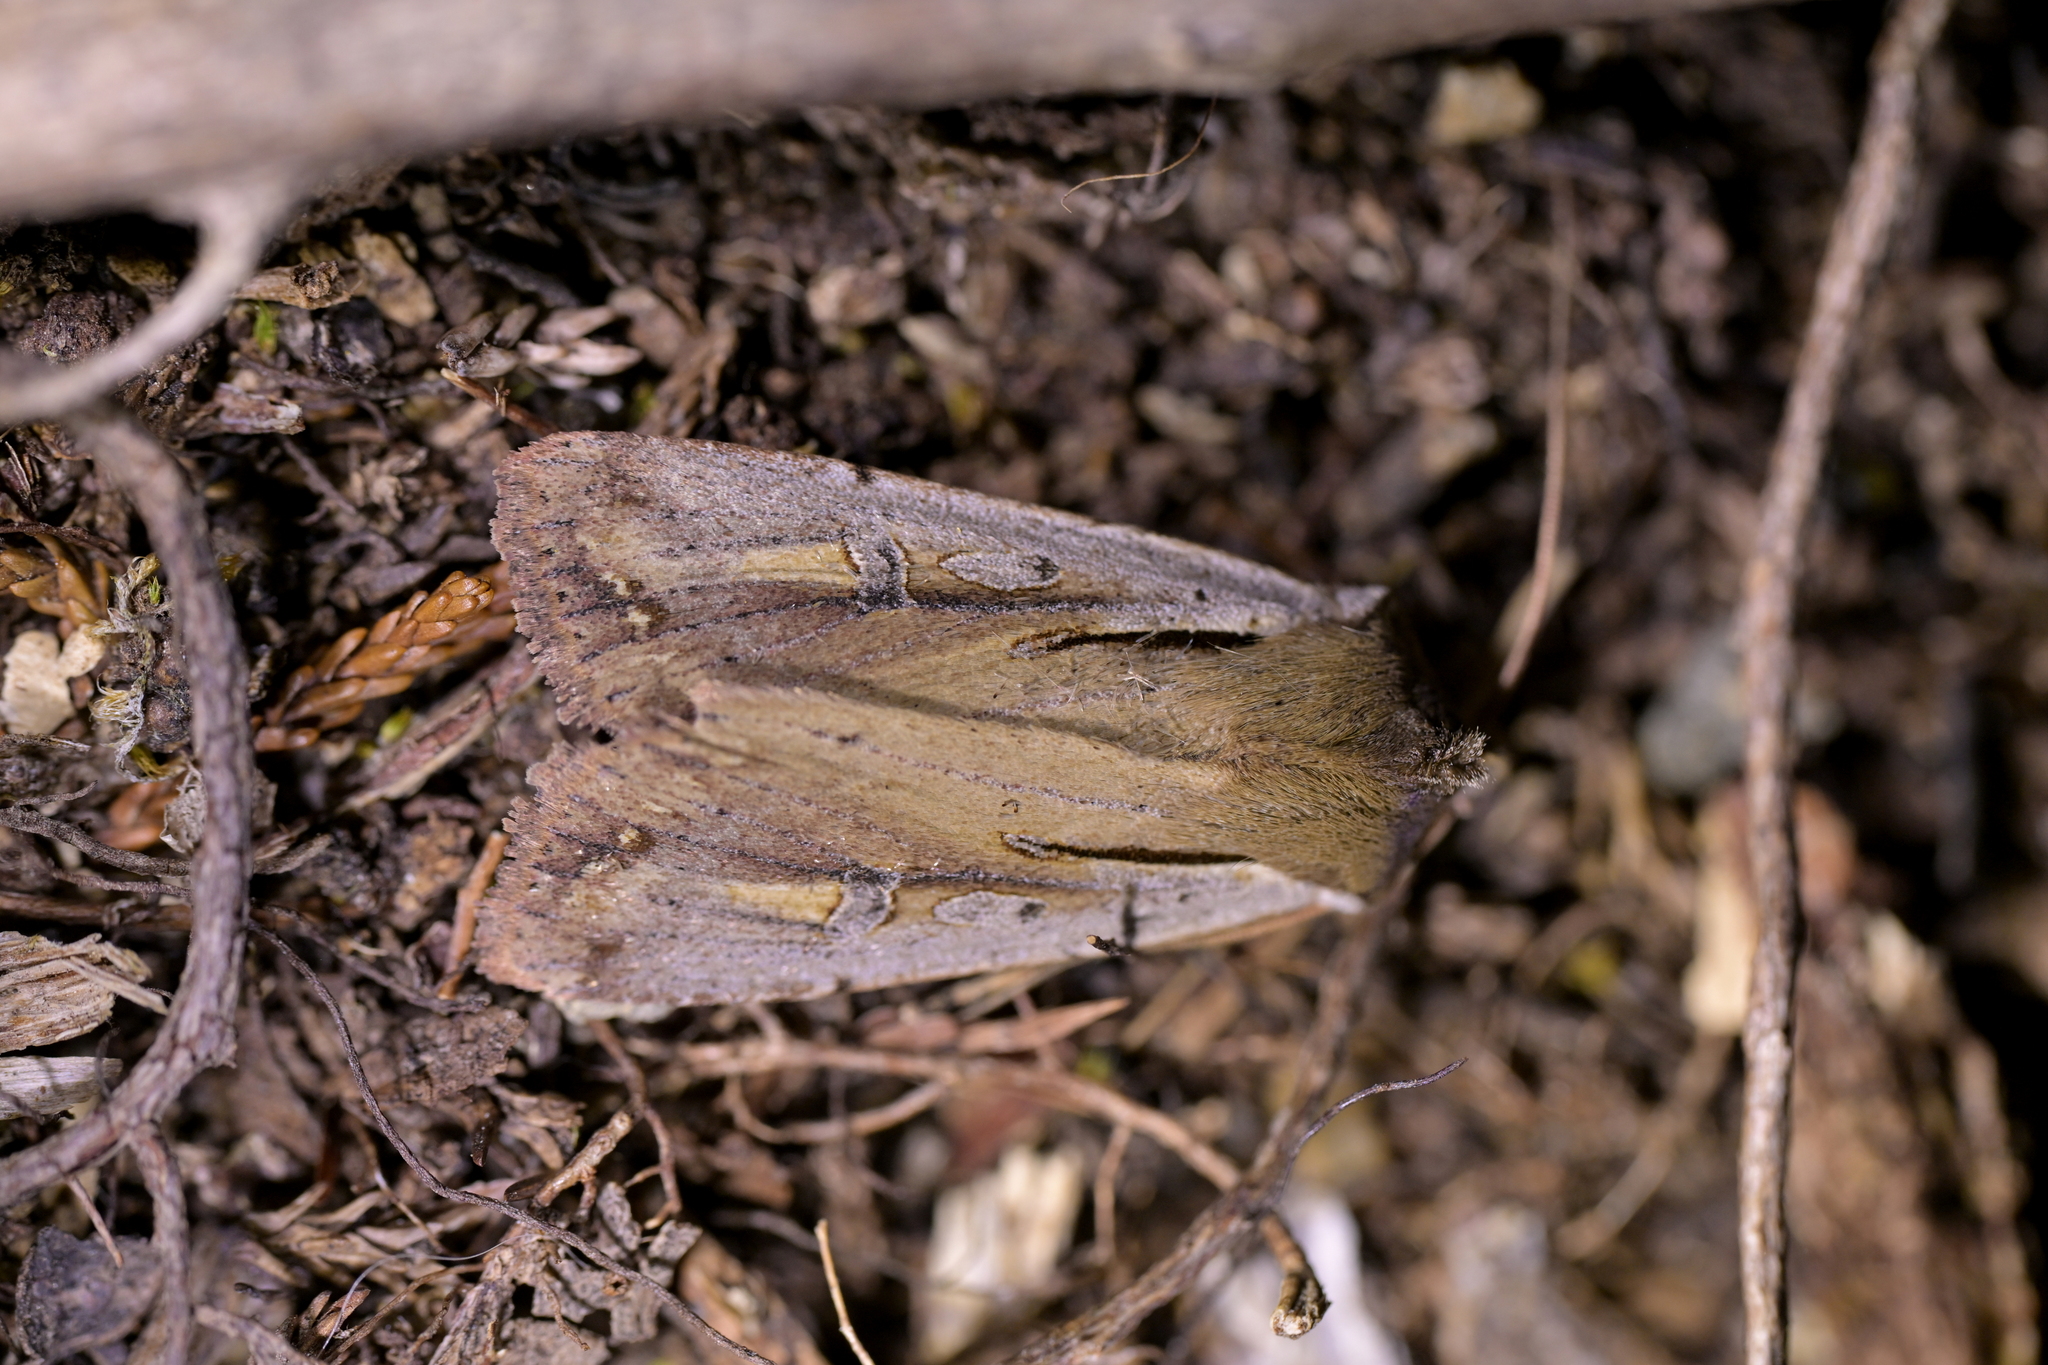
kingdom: Animalia
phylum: Arthropoda
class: Insecta
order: Lepidoptera
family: Noctuidae
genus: Ichneutica
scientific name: Ichneutica atristriga
